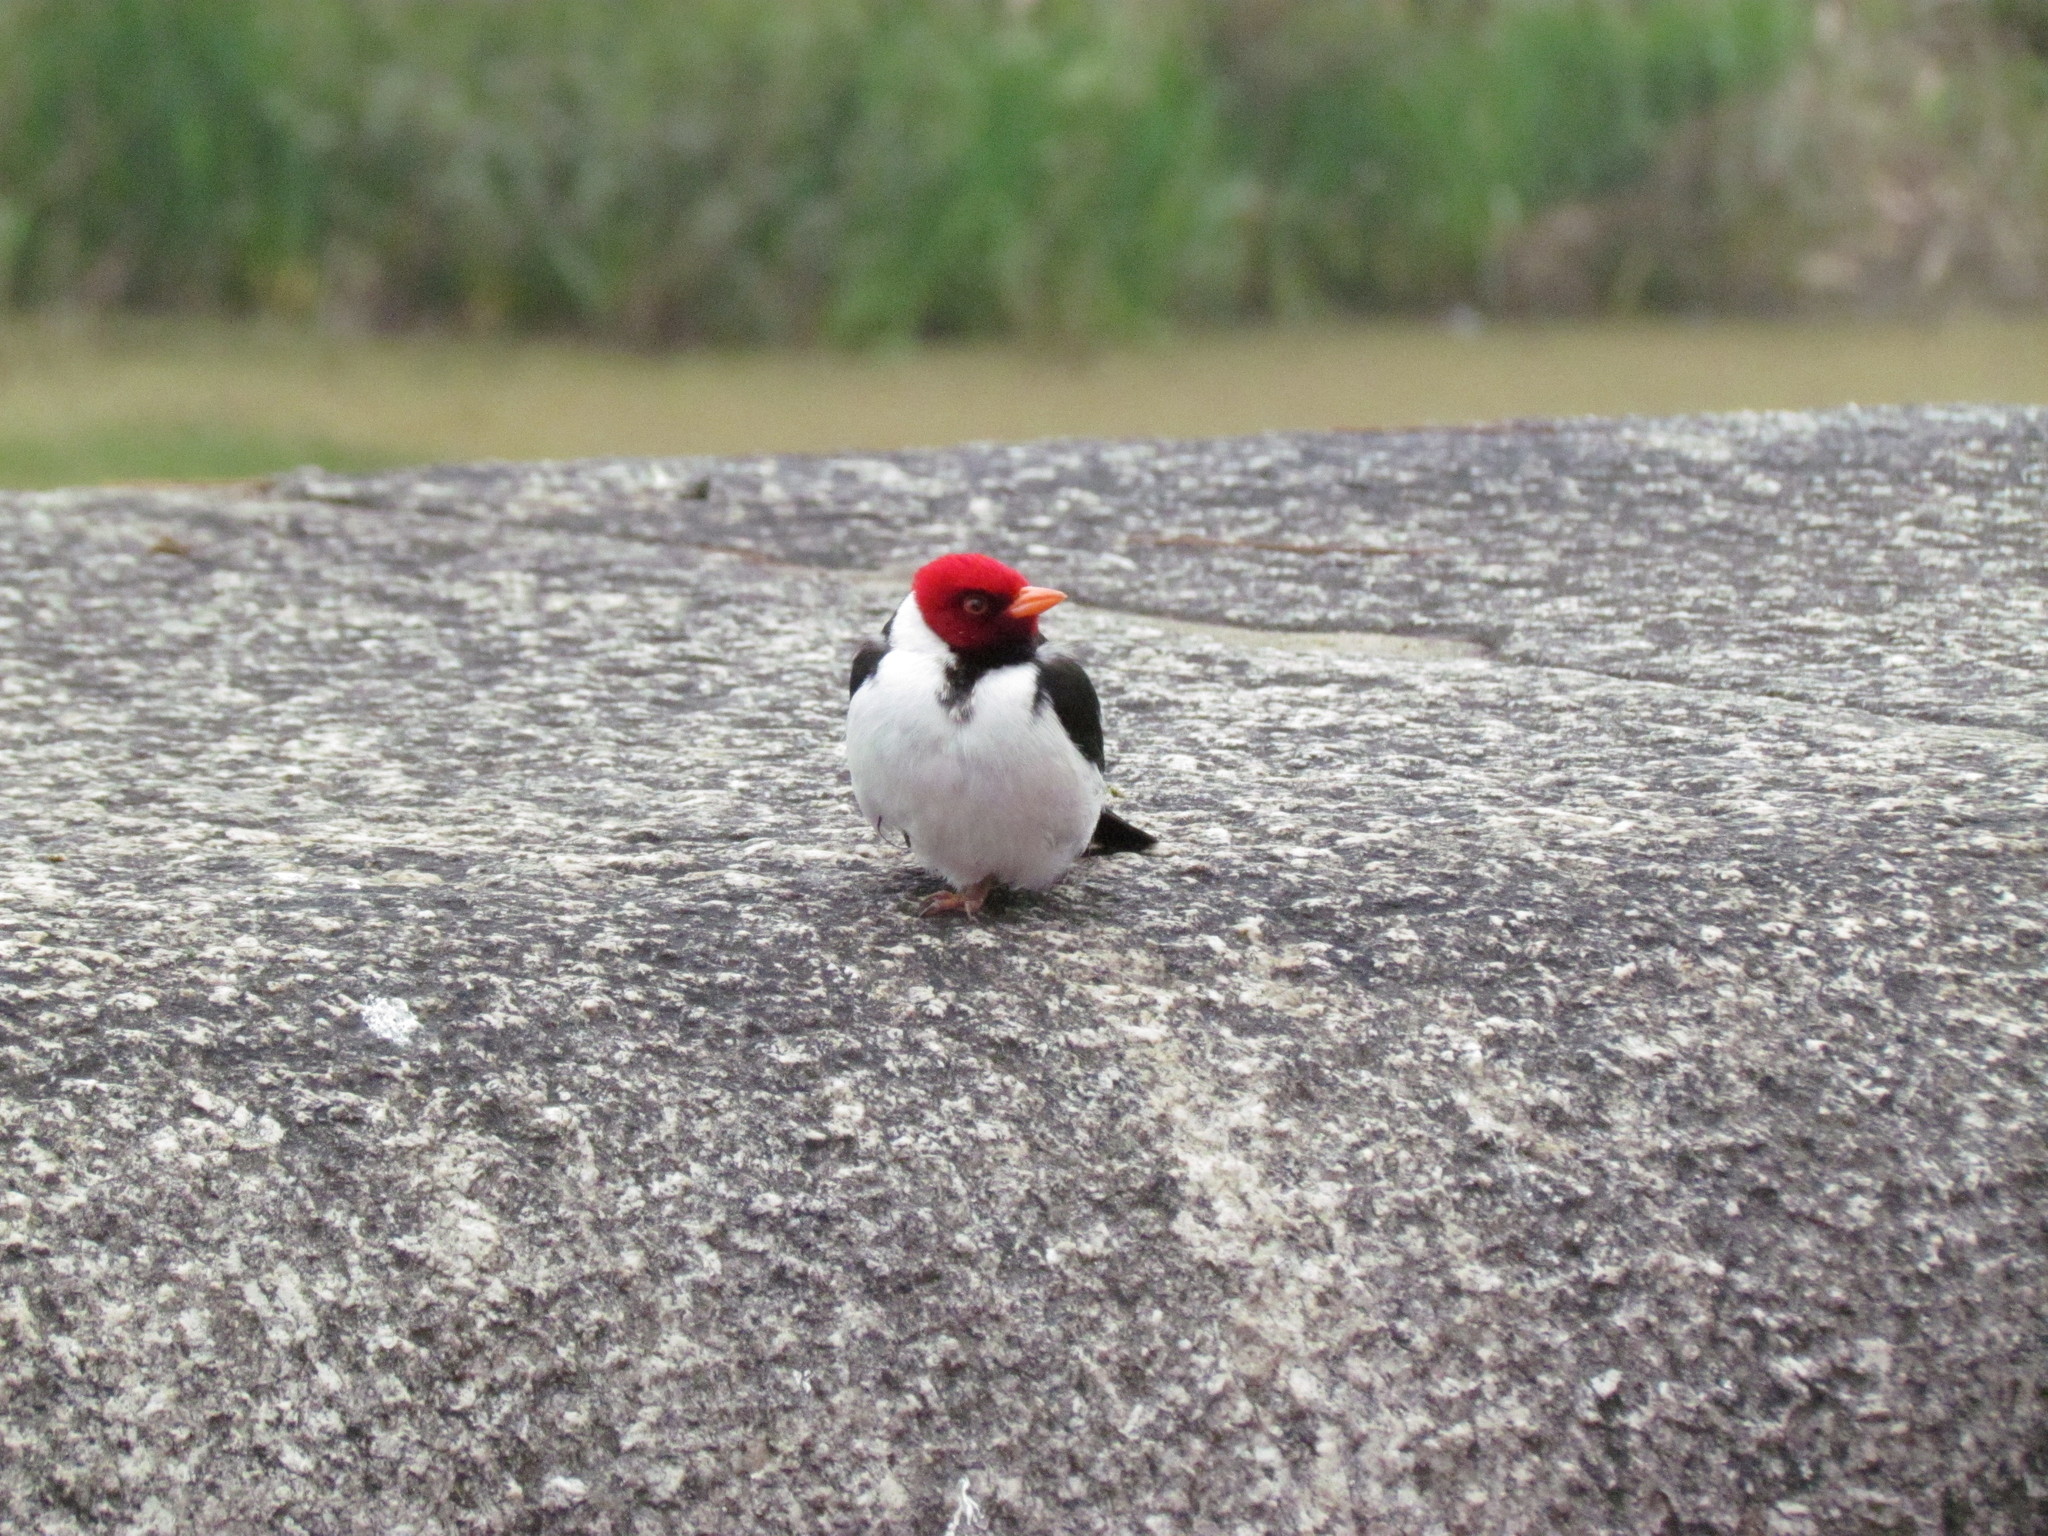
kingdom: Animalia
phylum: Chordata
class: Aves
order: Passeriformes
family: Thraupidae
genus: Paroaria
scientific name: Paroaria capitata
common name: Yellow-billed cardinal
